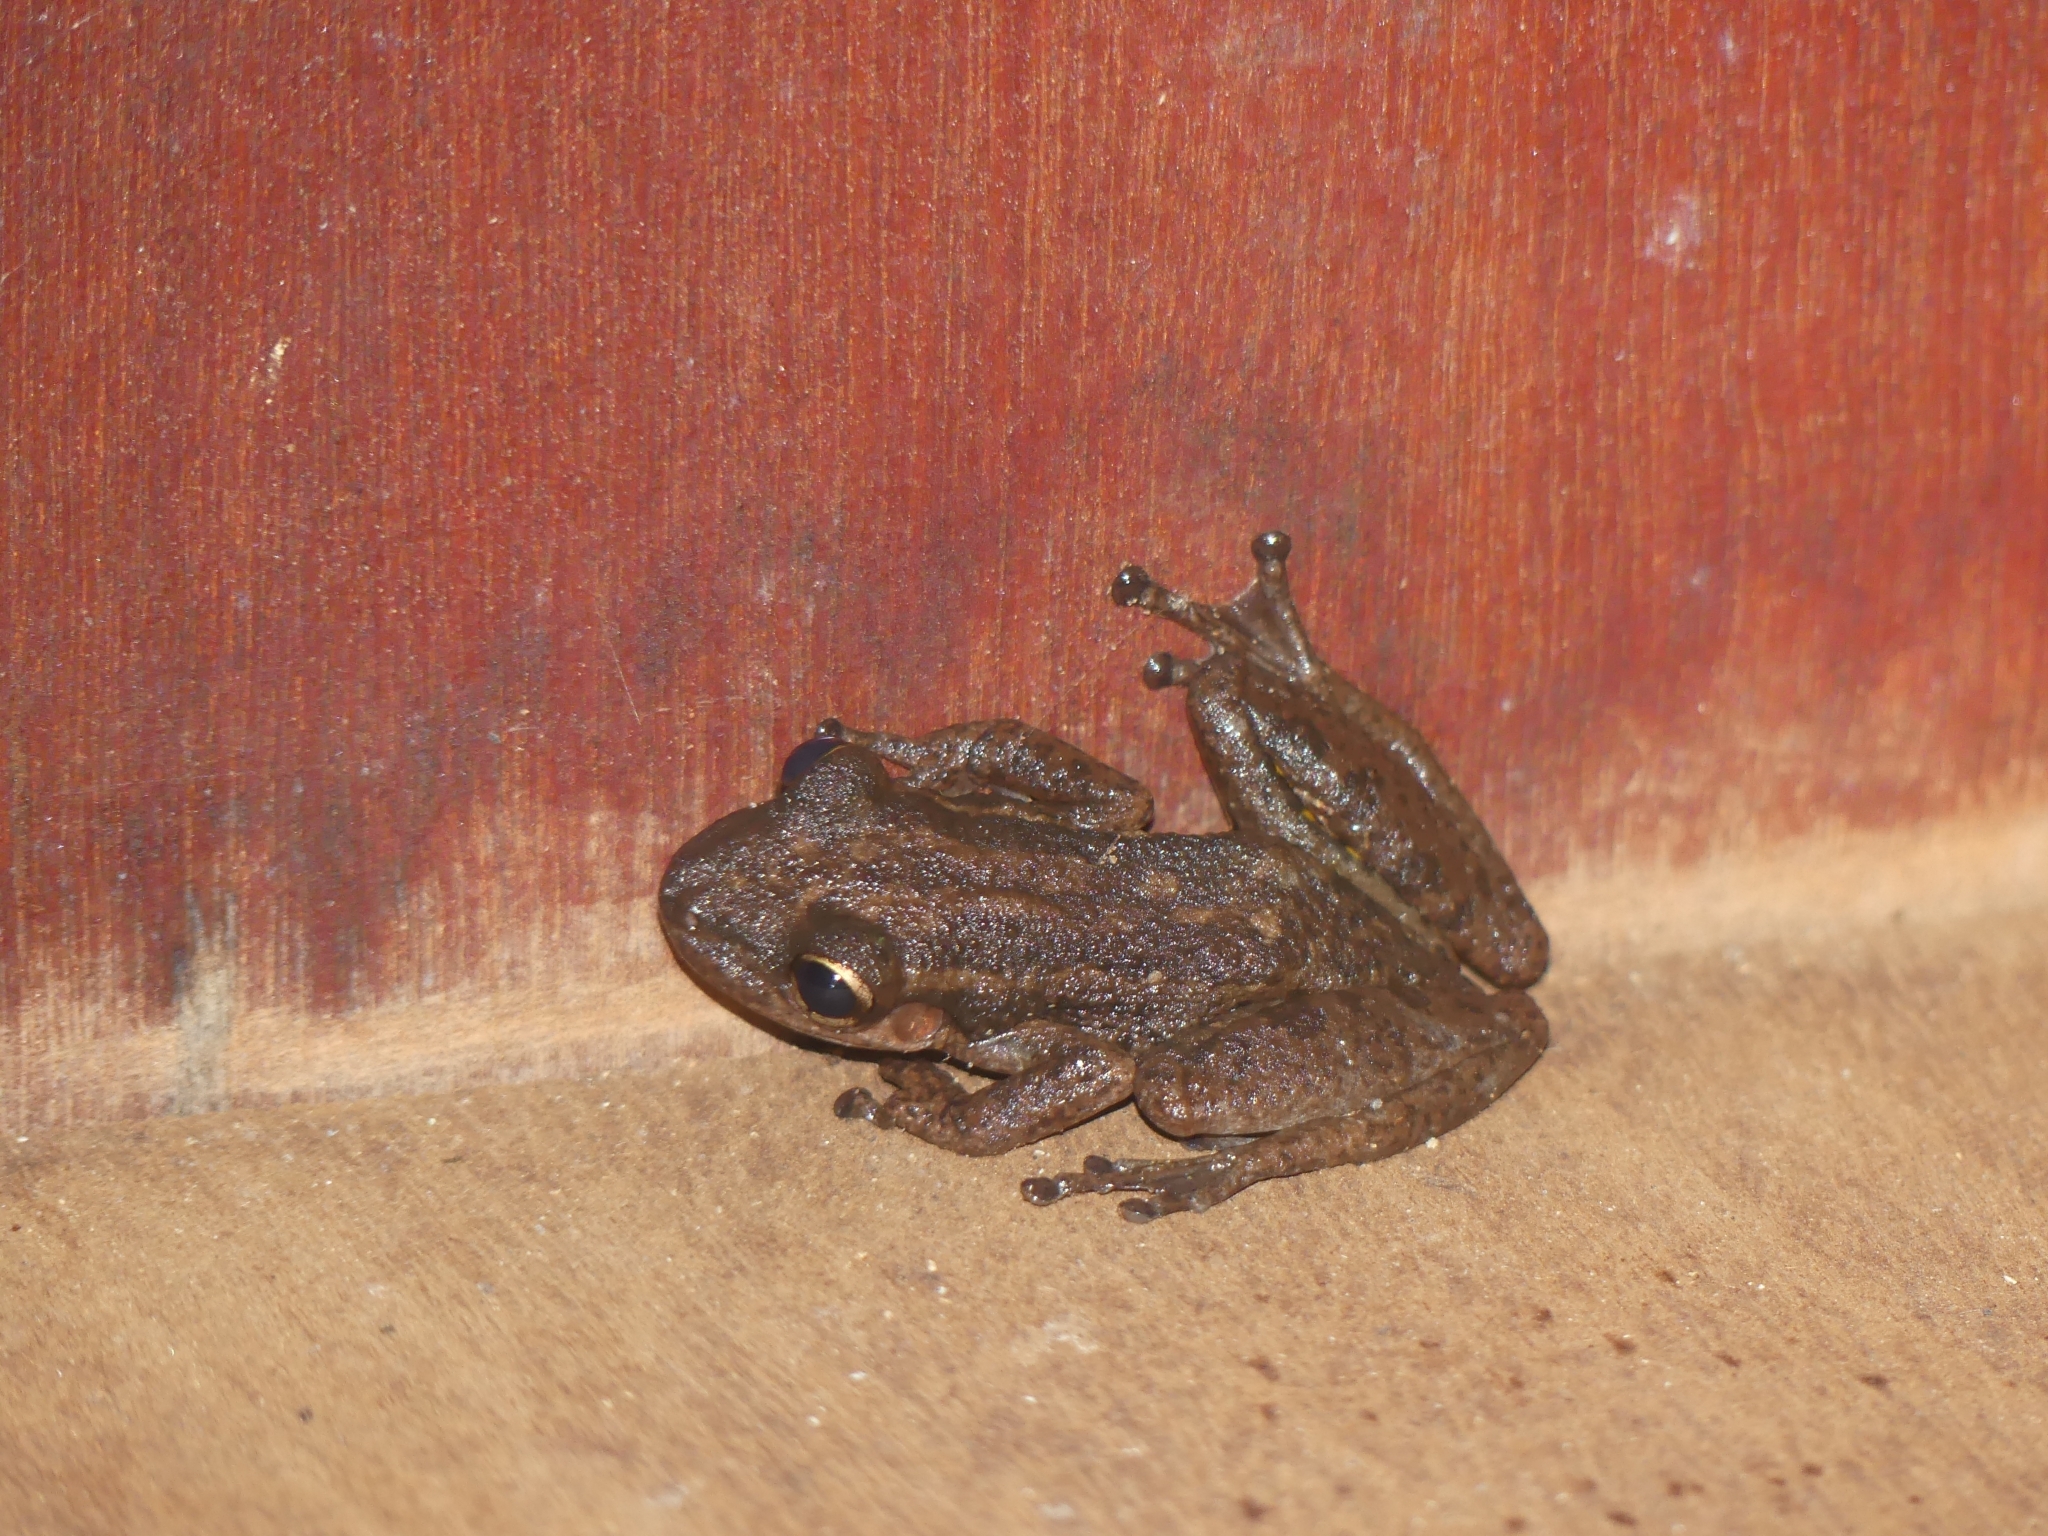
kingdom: Animalia
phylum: Chordata
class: Amphibia
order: Anura
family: Hylidae
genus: Scinax
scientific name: Scinax ruber
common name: Red snouted treefrog
